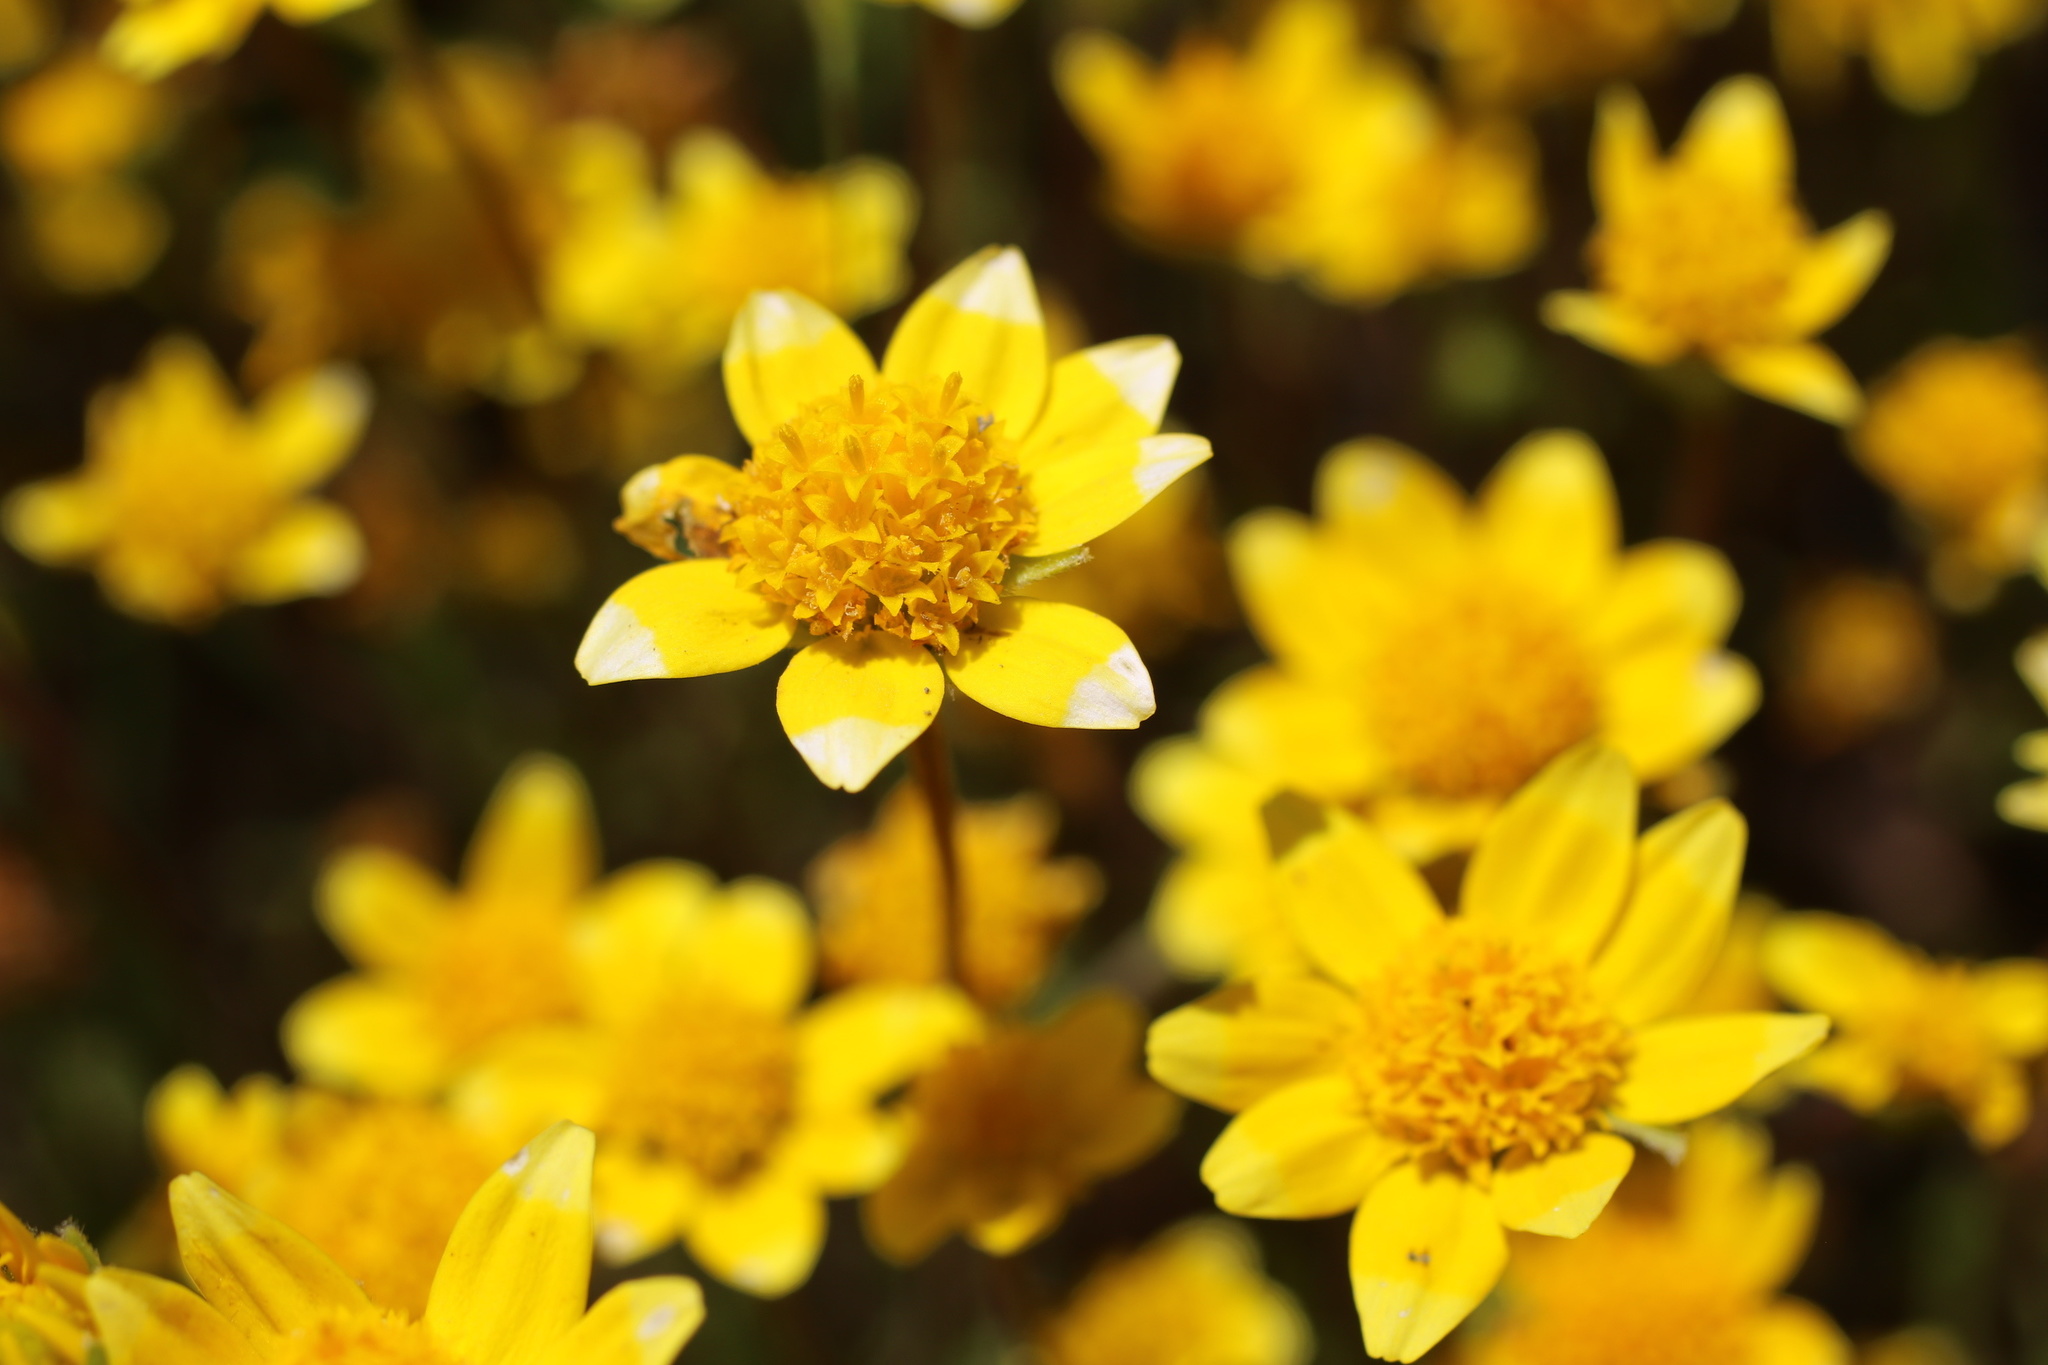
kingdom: Plantae
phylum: Tracheophyta
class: Magnoliopsida
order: Asterales
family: Asteraceae
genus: Lasthenia
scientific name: Lasthenia californica
